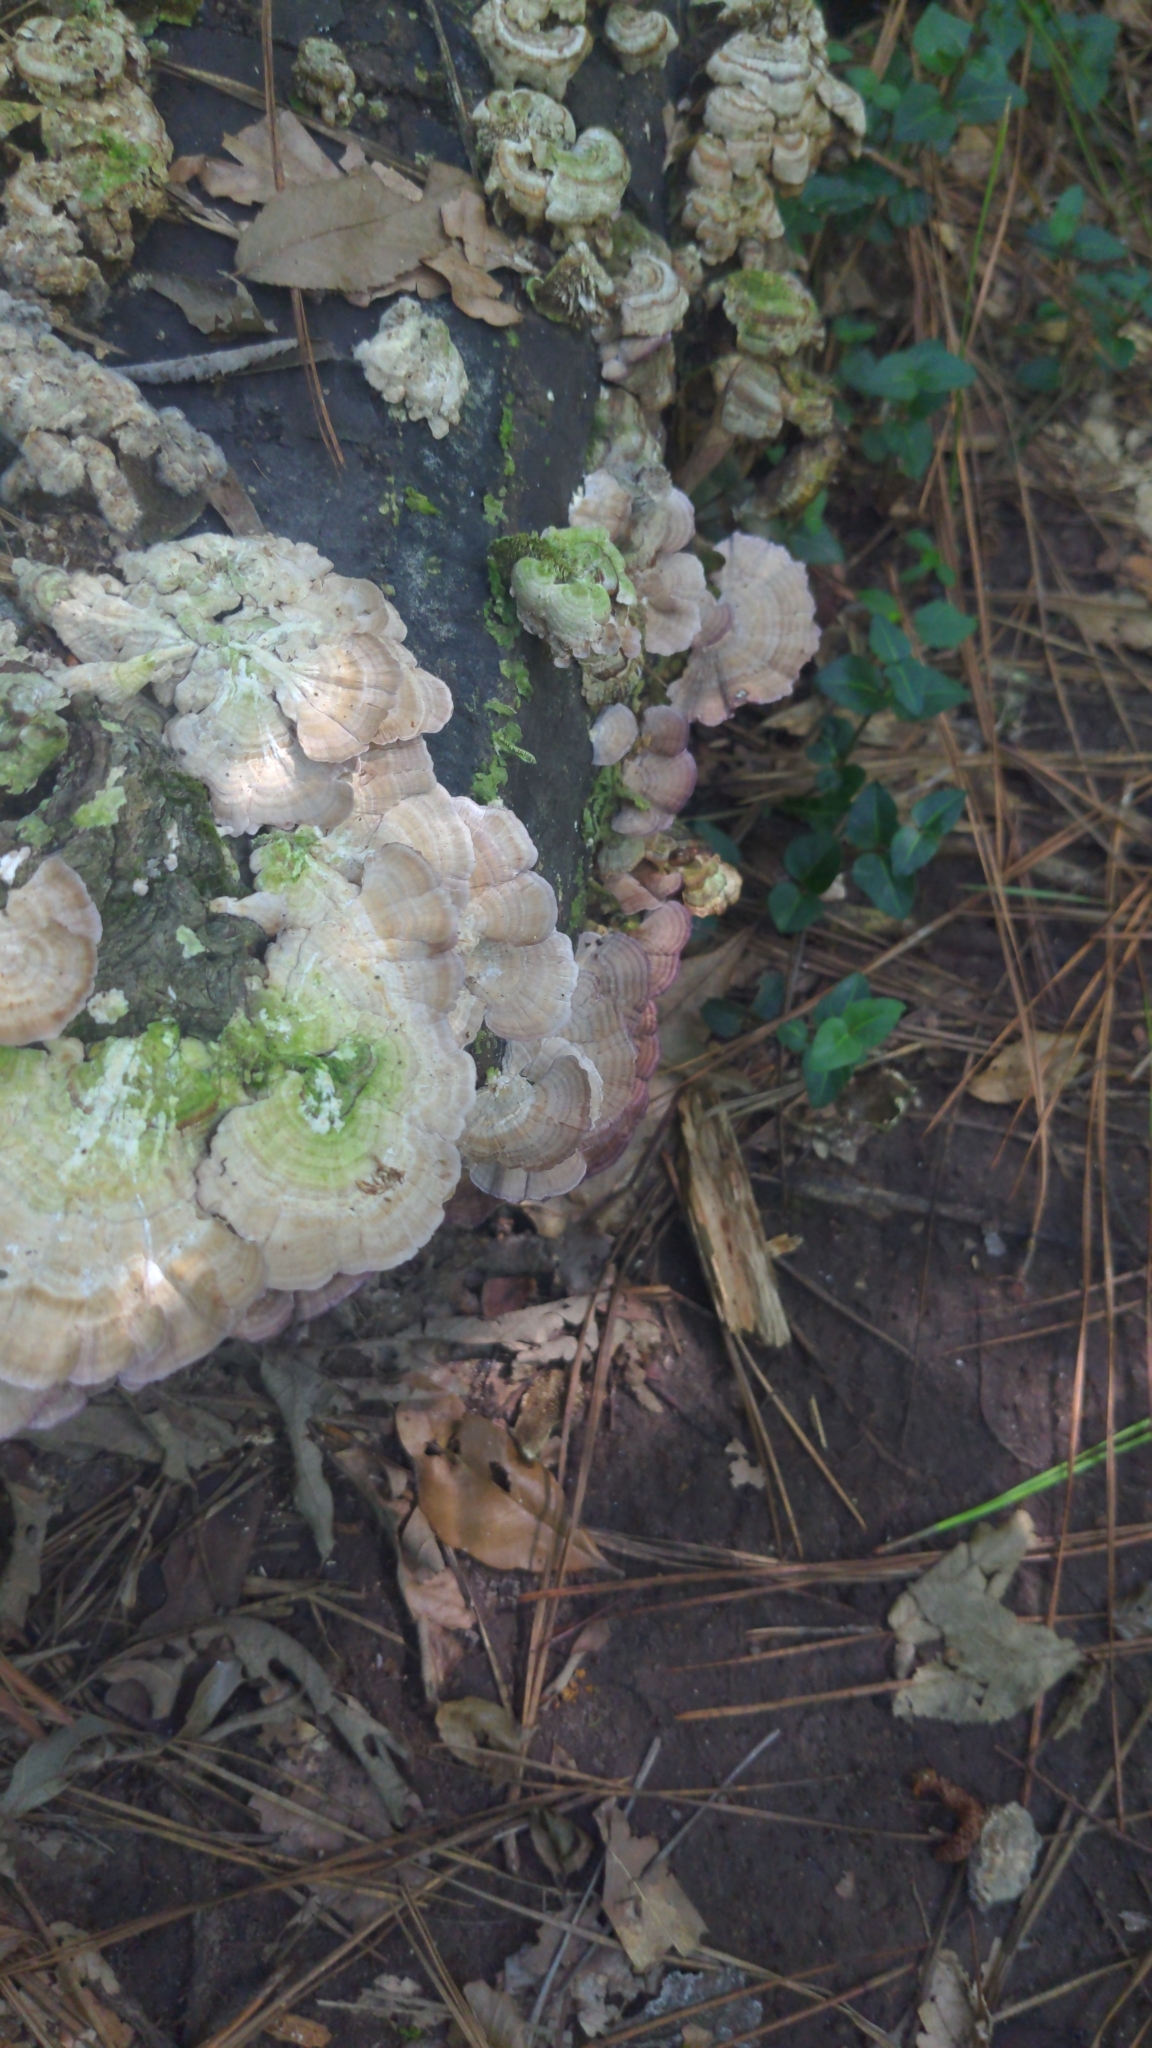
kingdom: Fungi
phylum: Basidiomycota
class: Agaricomycetes
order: Hymenochaetales
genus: Trichaptum
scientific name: Trichaptum biforme
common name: Violet-toothed polypore
